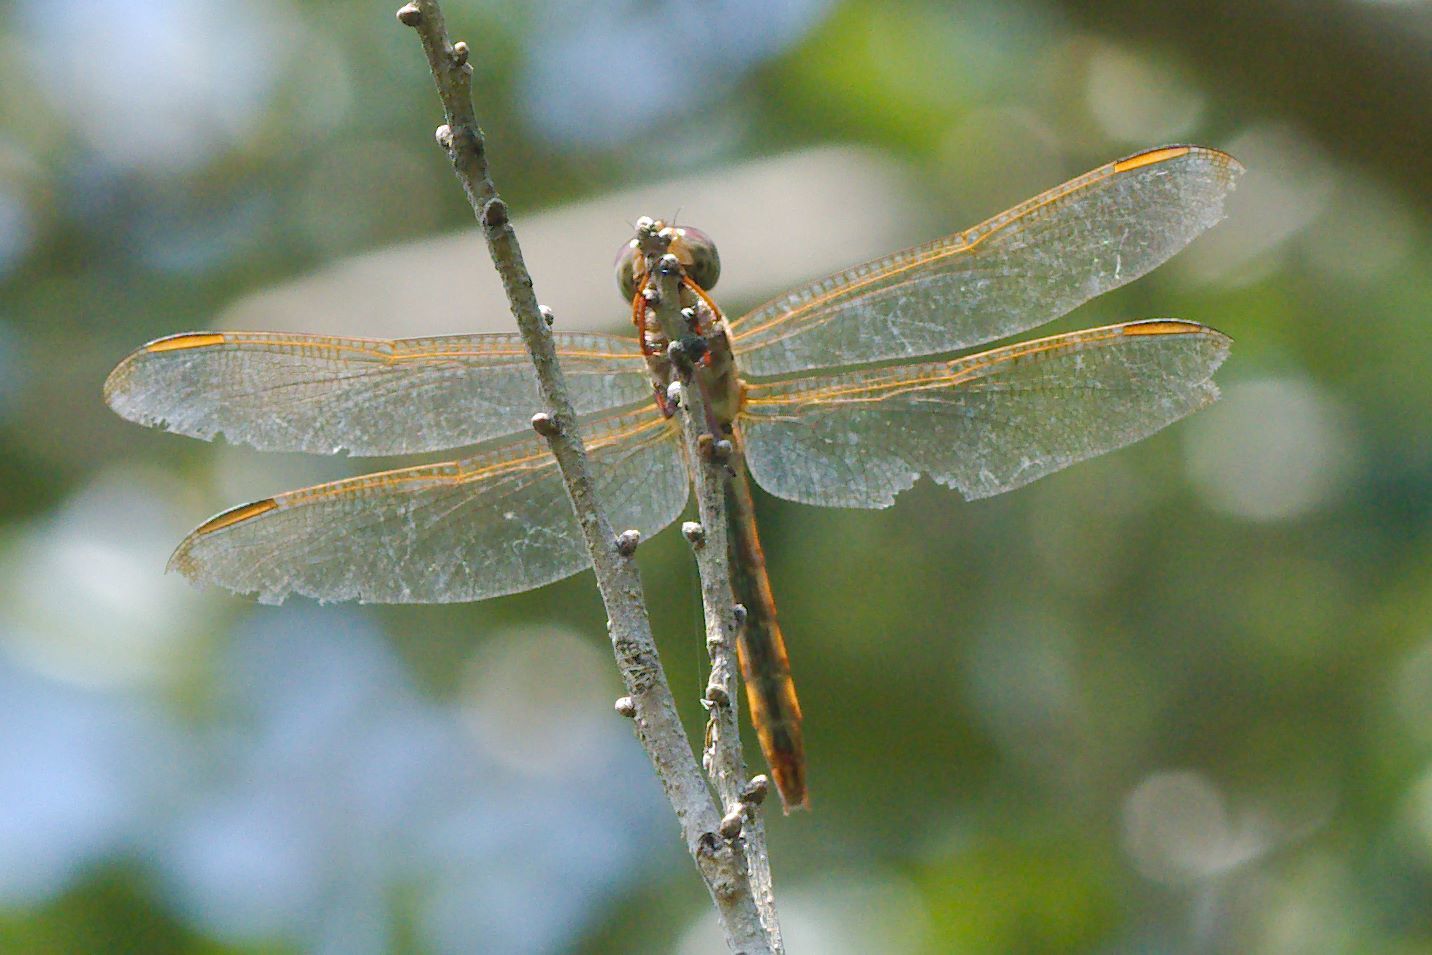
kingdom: Animalia
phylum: Arthropoda
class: Insecta
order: Odonata
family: Libellulidae
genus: Libellula
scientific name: Libellula needhami
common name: Needham's skimmer
